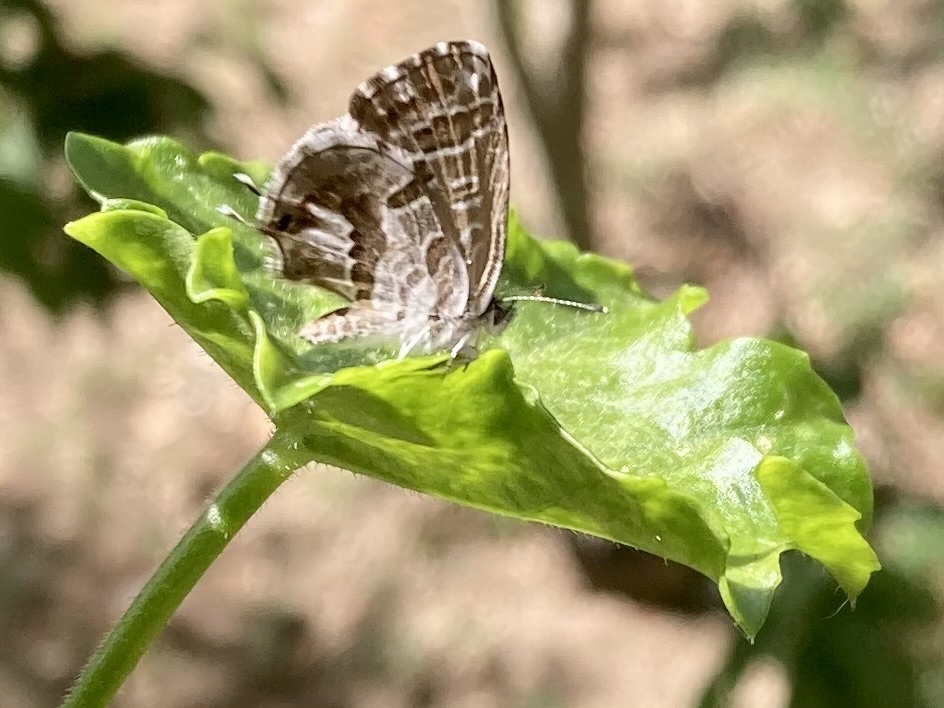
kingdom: Animalia
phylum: Arthropoda
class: Insecta
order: Lepidoptera
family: Lycaenidae
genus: Cacyreus
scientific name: Cacyreus marshalli
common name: Geranium bronze
